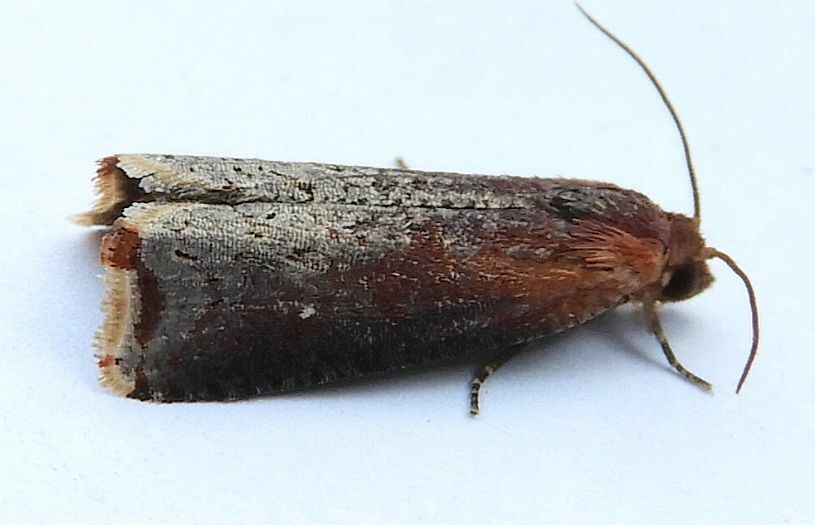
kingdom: Animalia
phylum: Arthropoda
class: Insecta
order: Lepidoptera
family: Tortricidae
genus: Pseudogalleria
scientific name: Pseudogalleria inimicella
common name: Inimical borer moth
